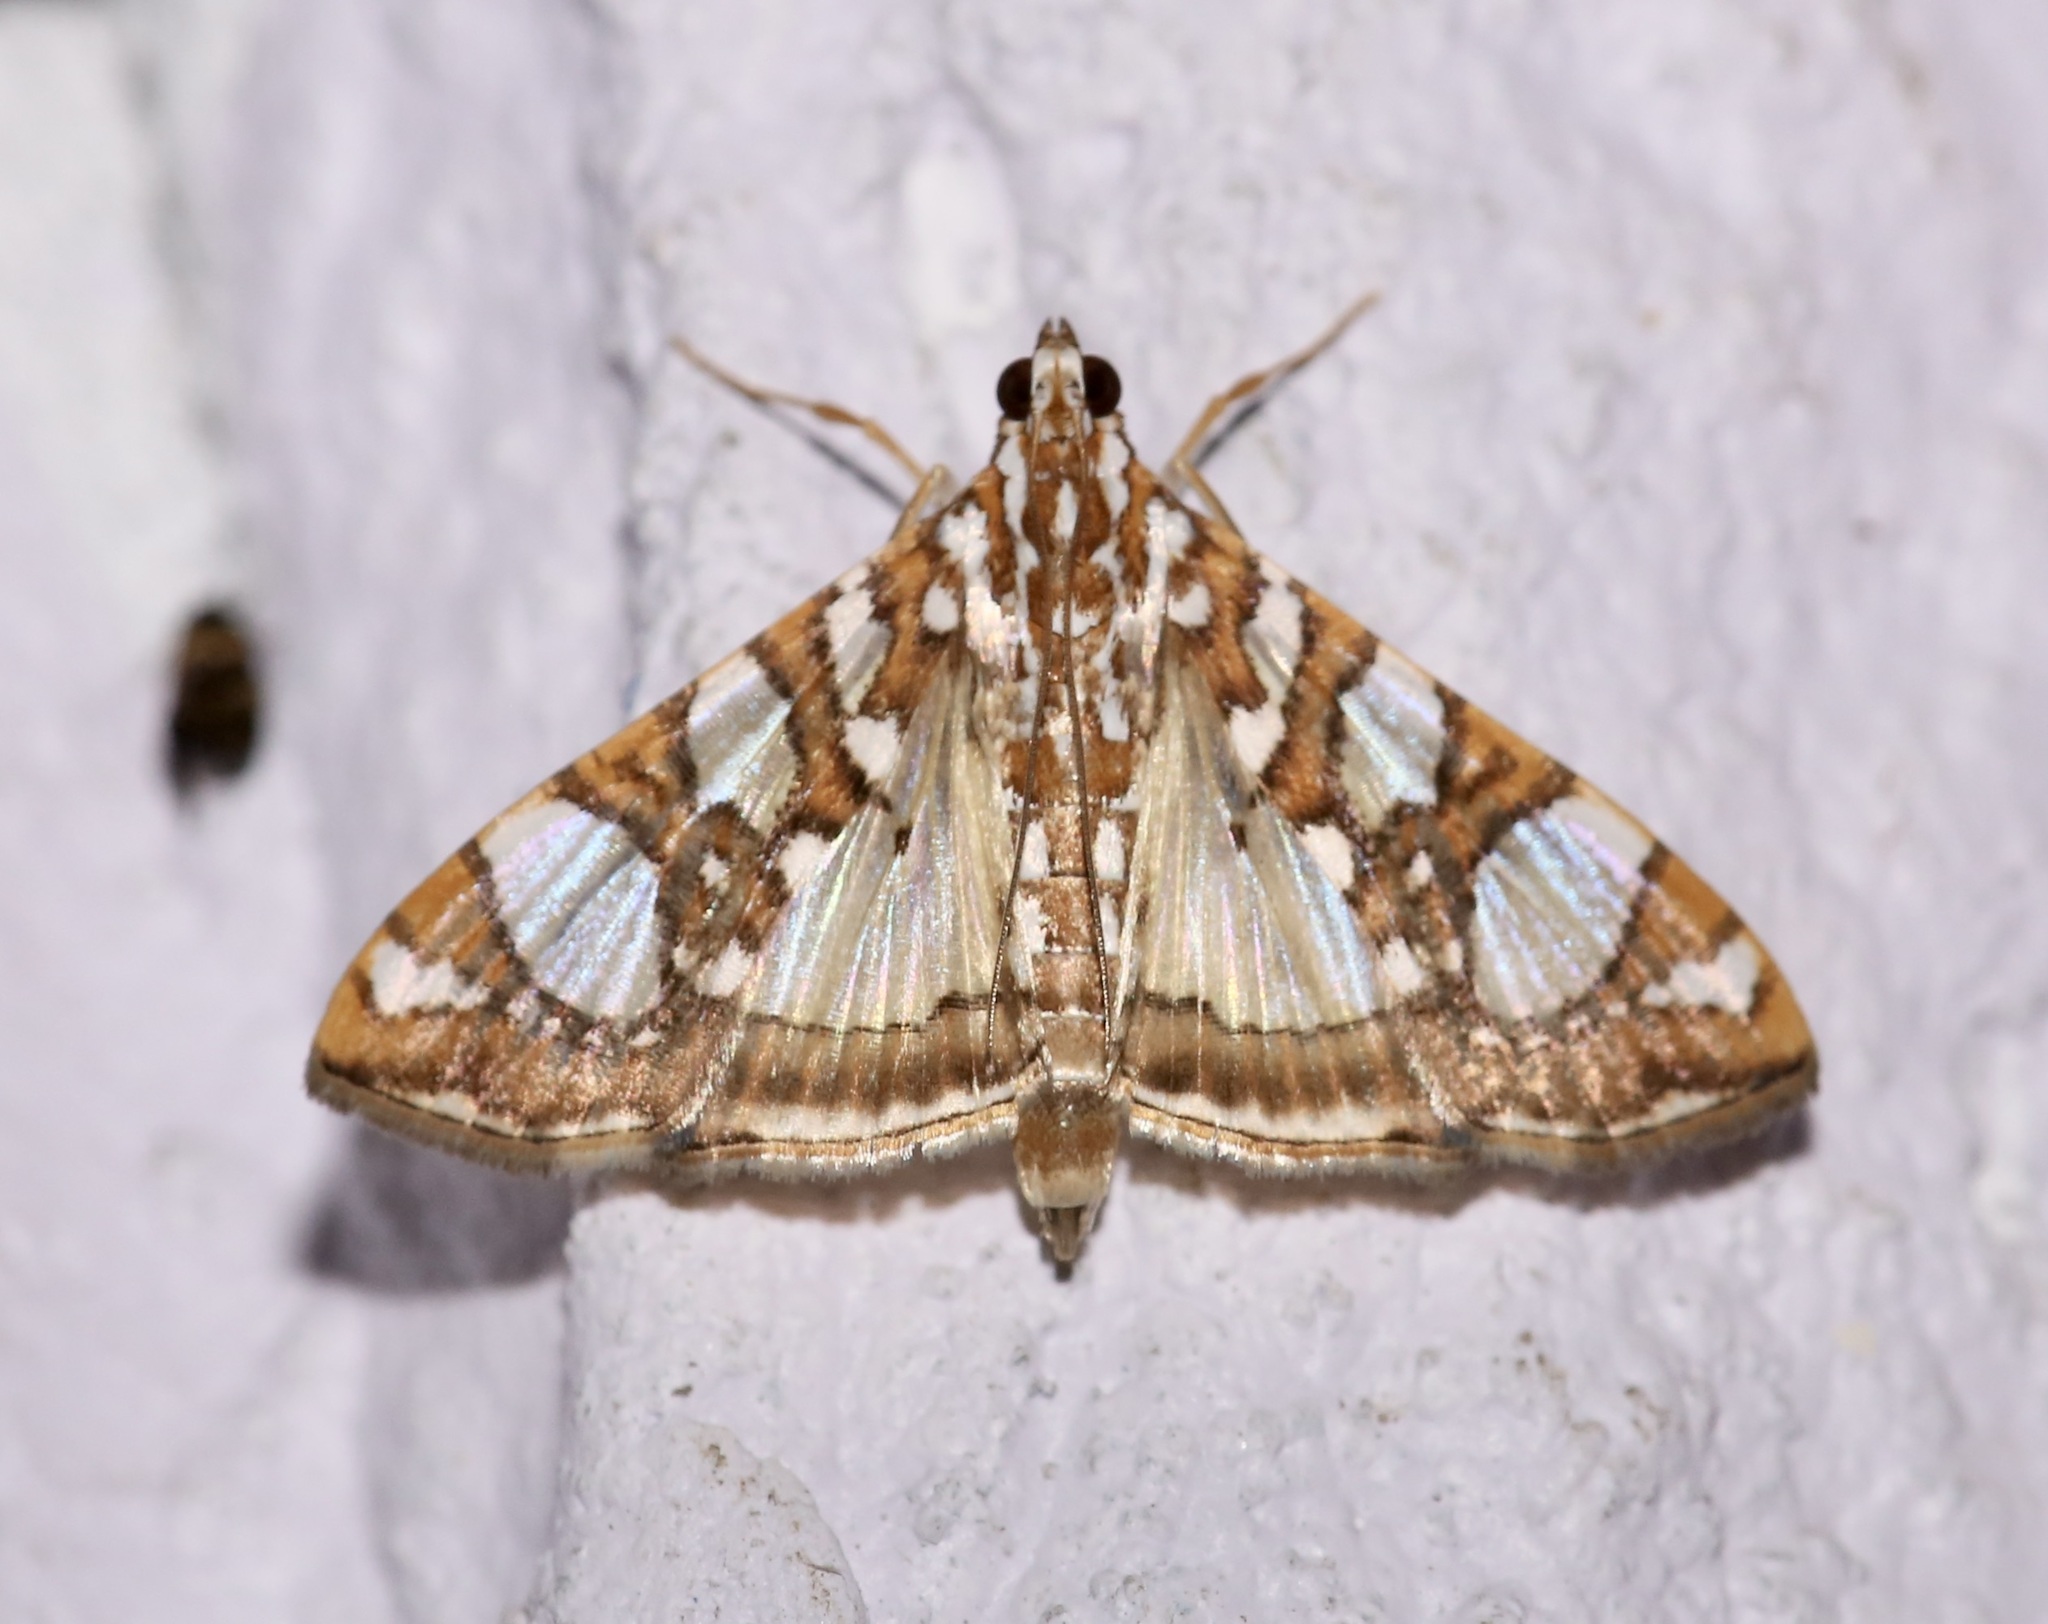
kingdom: Animalia
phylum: Arthropoda
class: Insecta
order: Lepidoptera
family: Crambidae
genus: Glyphodes
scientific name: Glyphodes sibillalis
